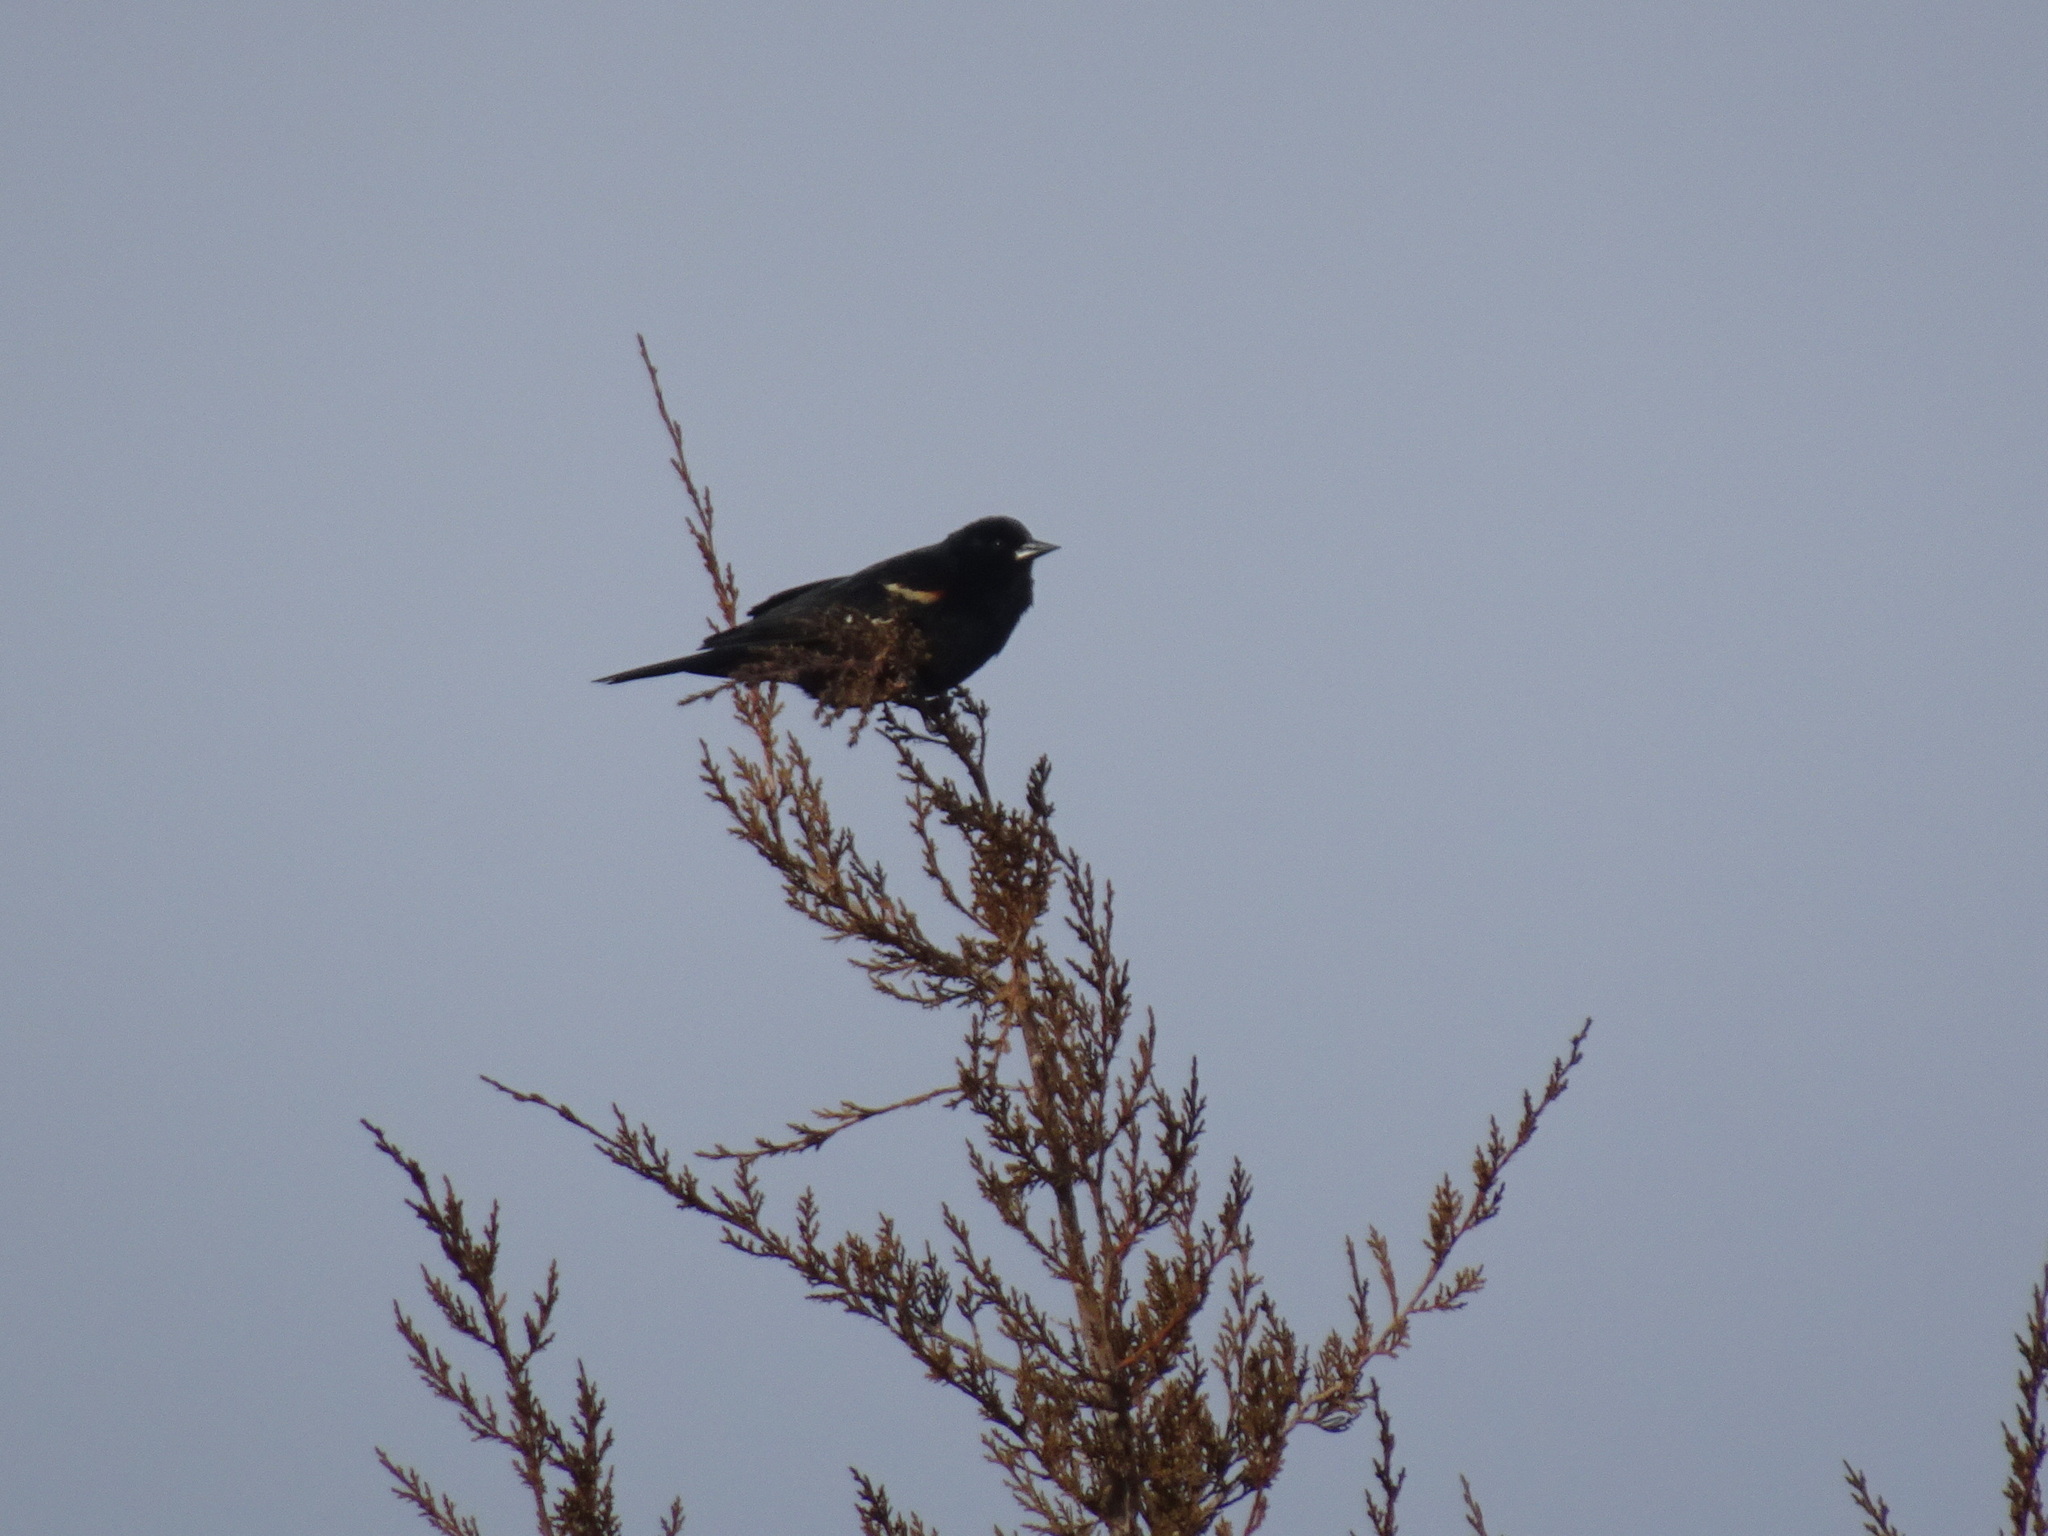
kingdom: Animalia
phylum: Chordata
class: Aves
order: Passeriformes
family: Icteridae
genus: Agelaius
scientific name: Agelaius phoeniceus
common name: Red-winged blackbird
